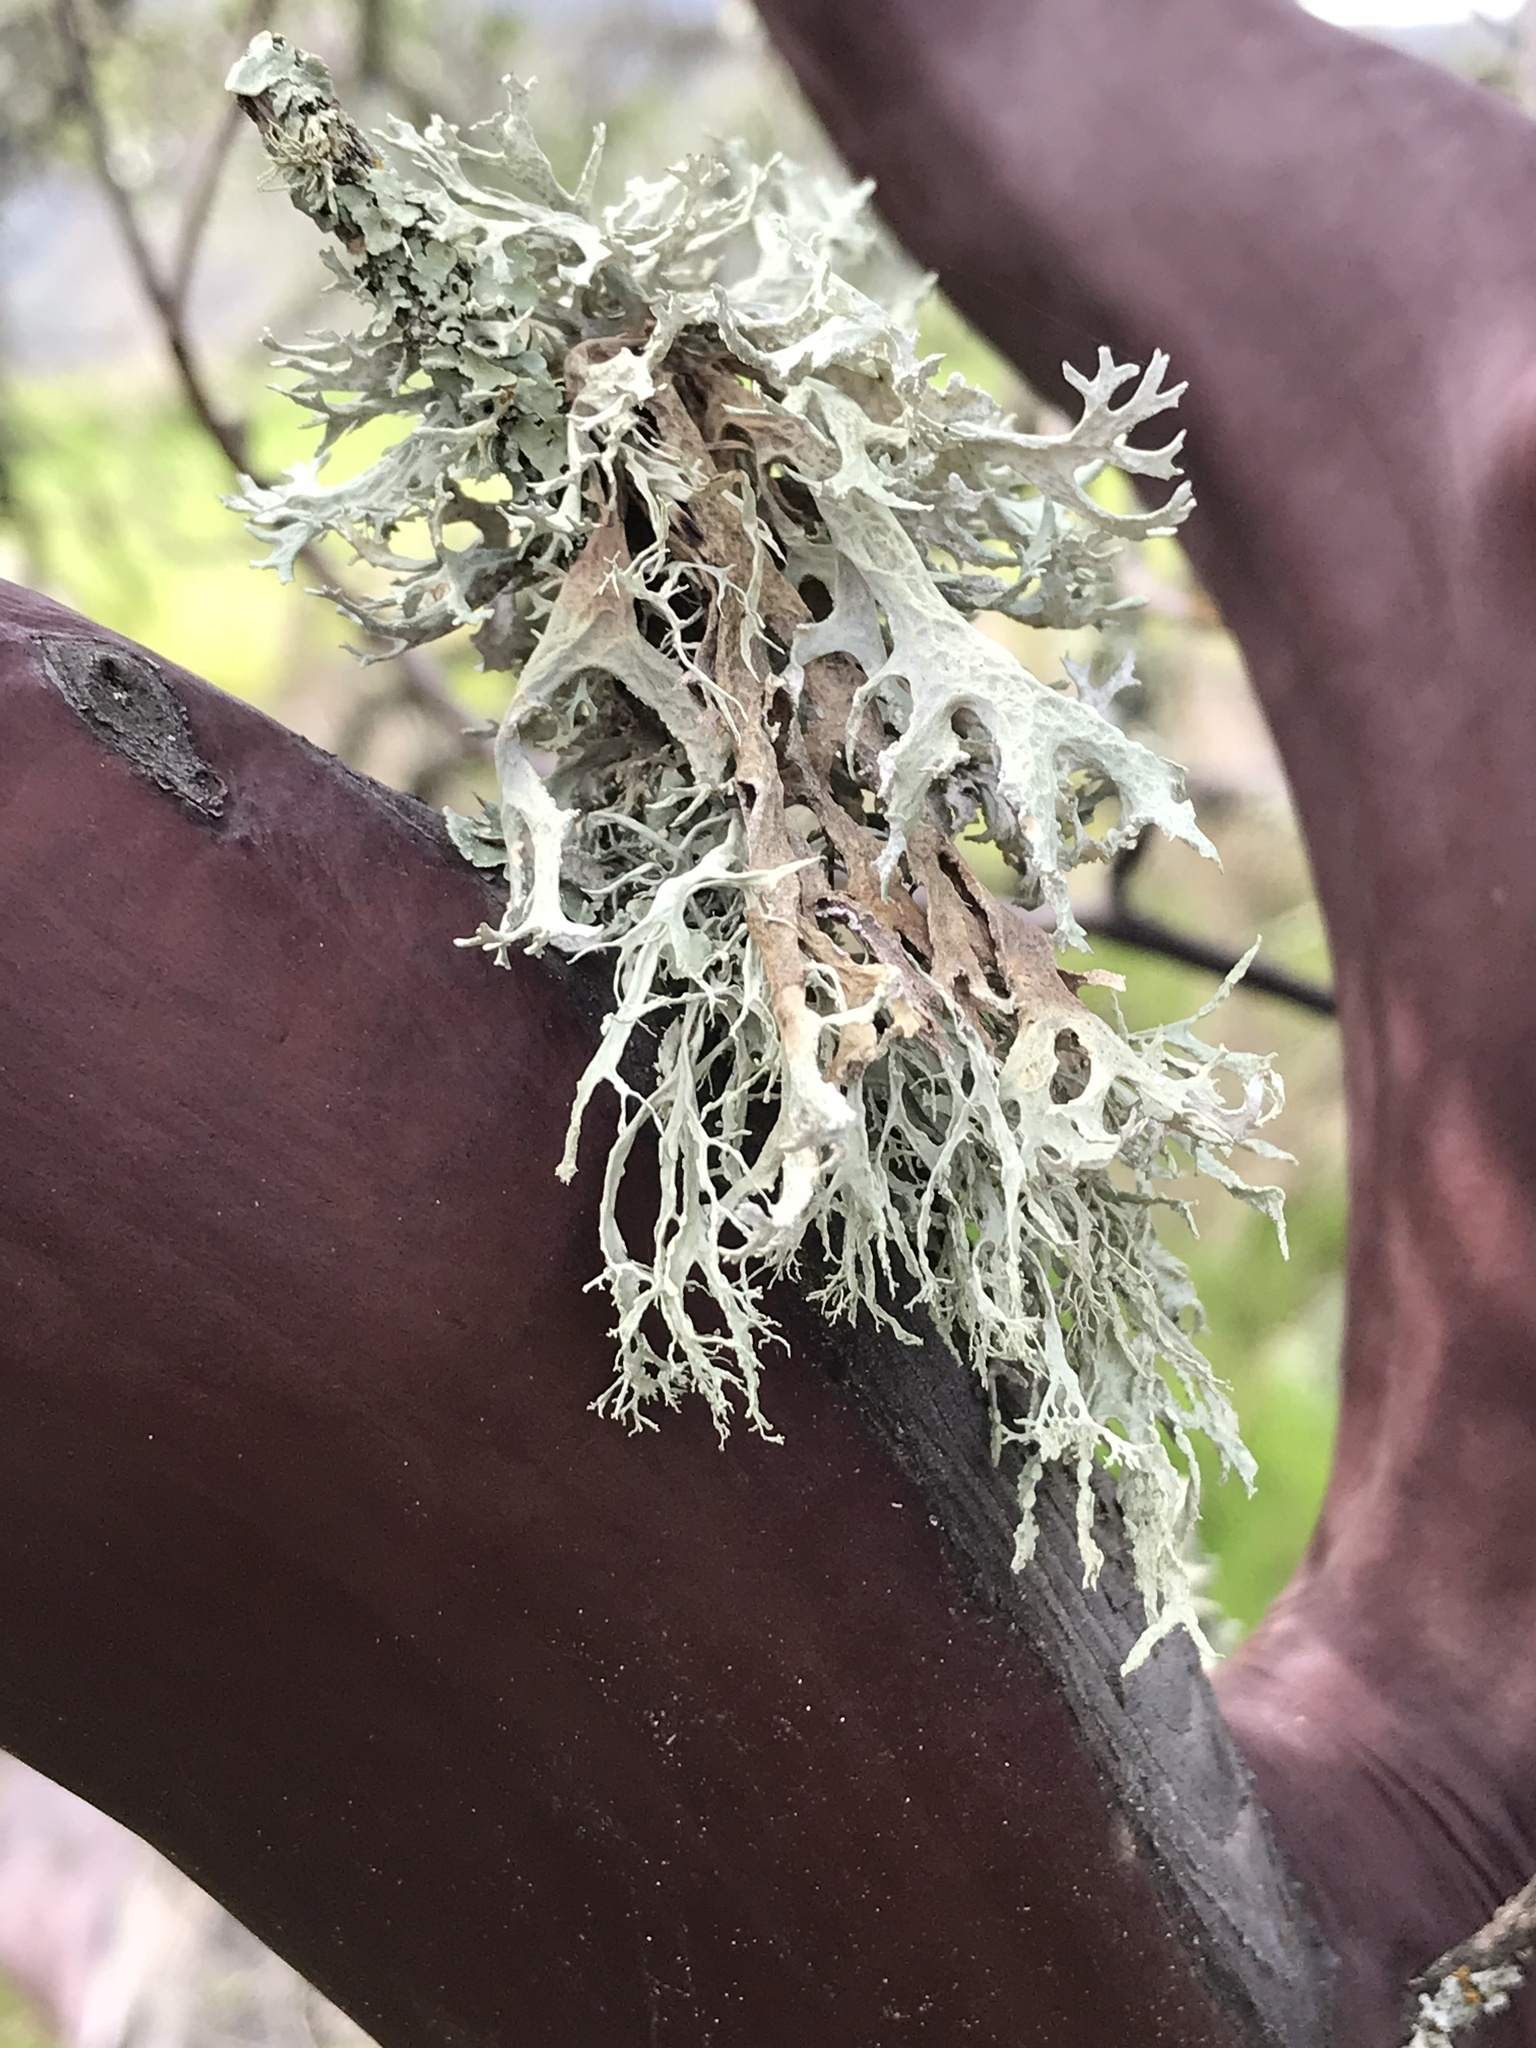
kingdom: Fungi
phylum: Ascomycota
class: Lecanoromycetes
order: Lecanorales
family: Parmeliaceae
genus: Evernia
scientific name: Evernia prunastri
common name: Oak moss
